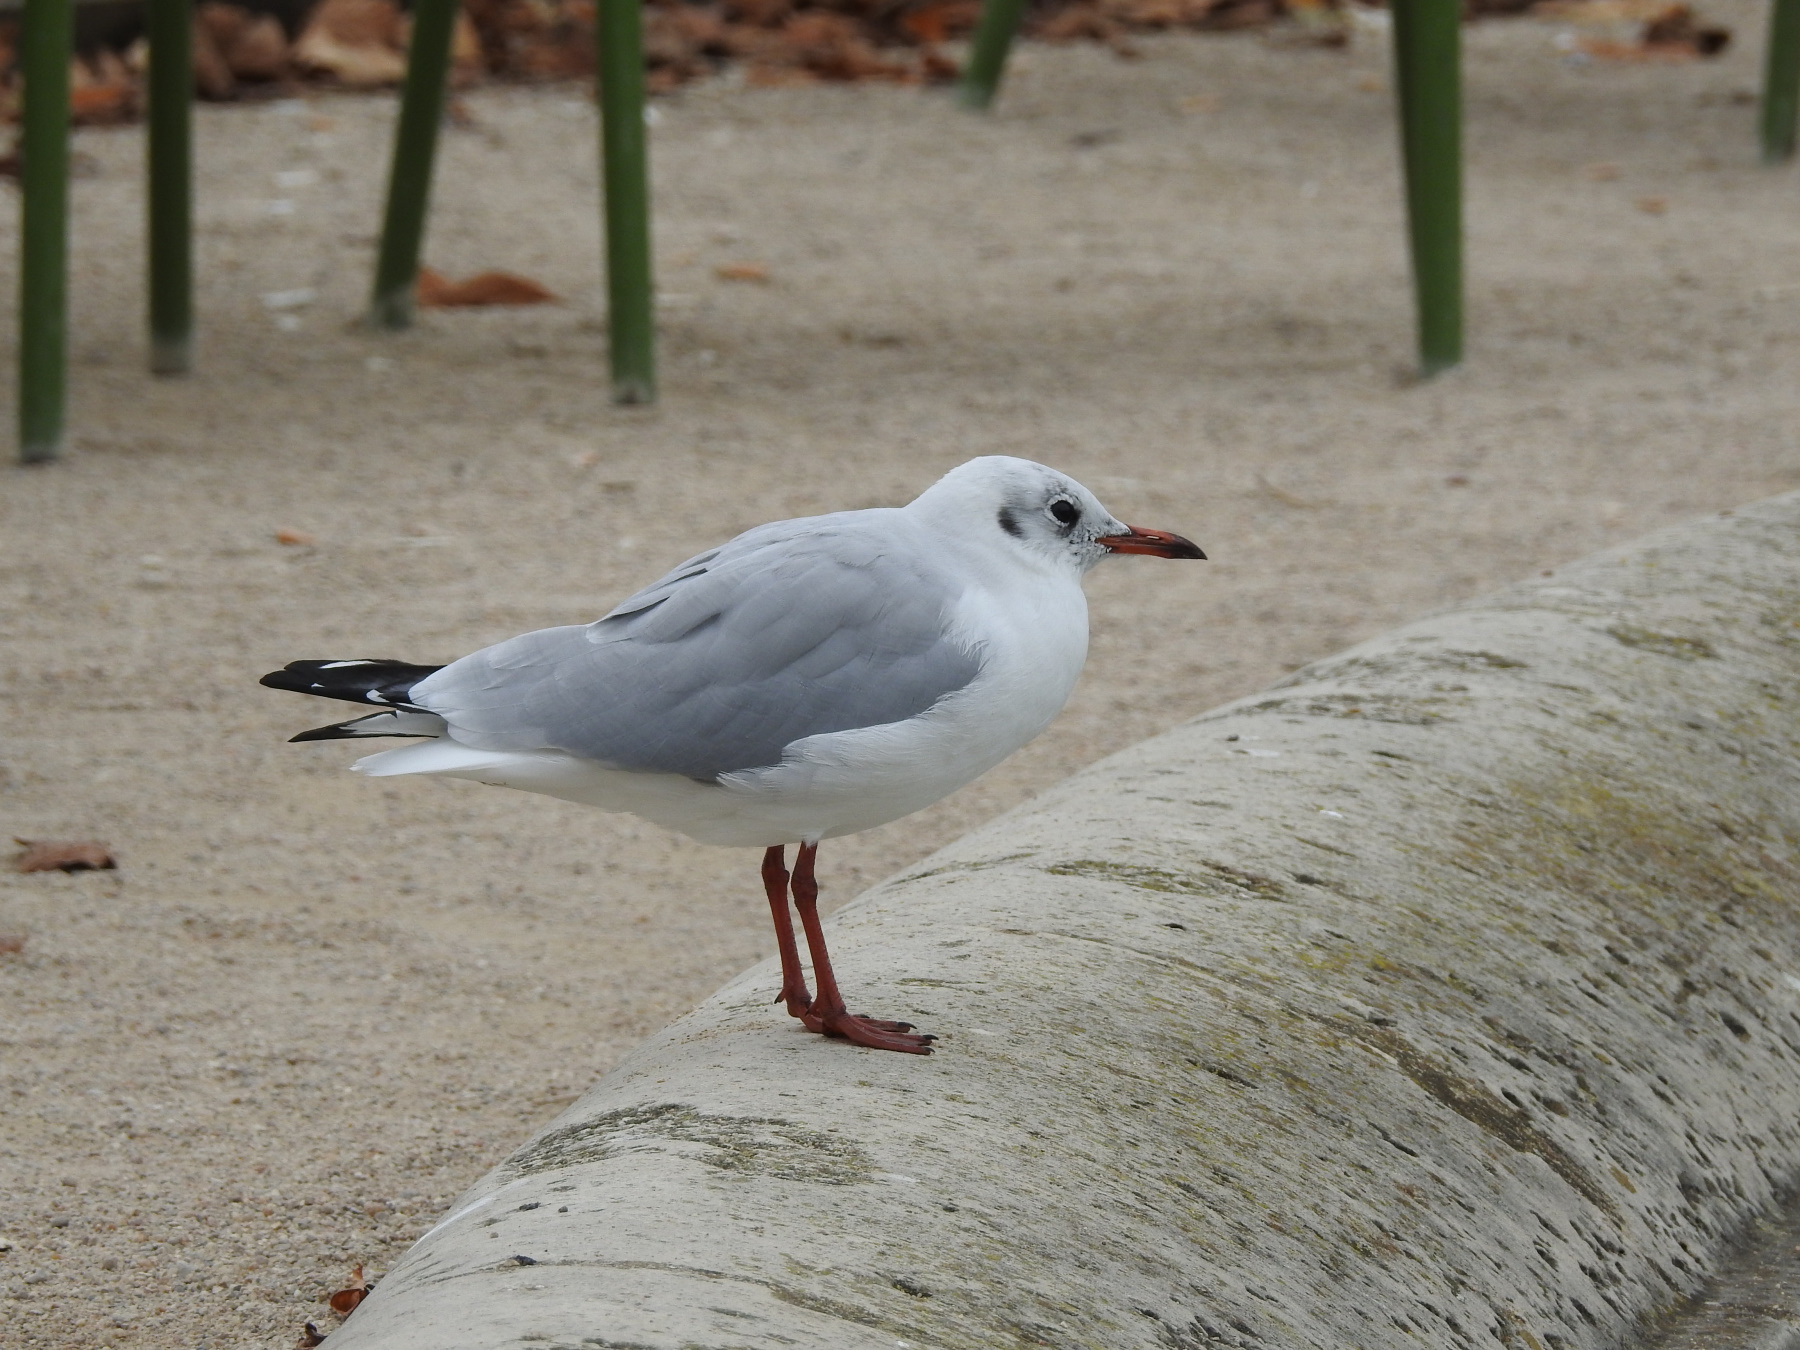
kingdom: Animalia
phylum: Chordata
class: Aves
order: Charadriiformes
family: Laridae
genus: Chroicocephalus
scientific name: Chroicocephalus ridibundus
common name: Black-headed gull
